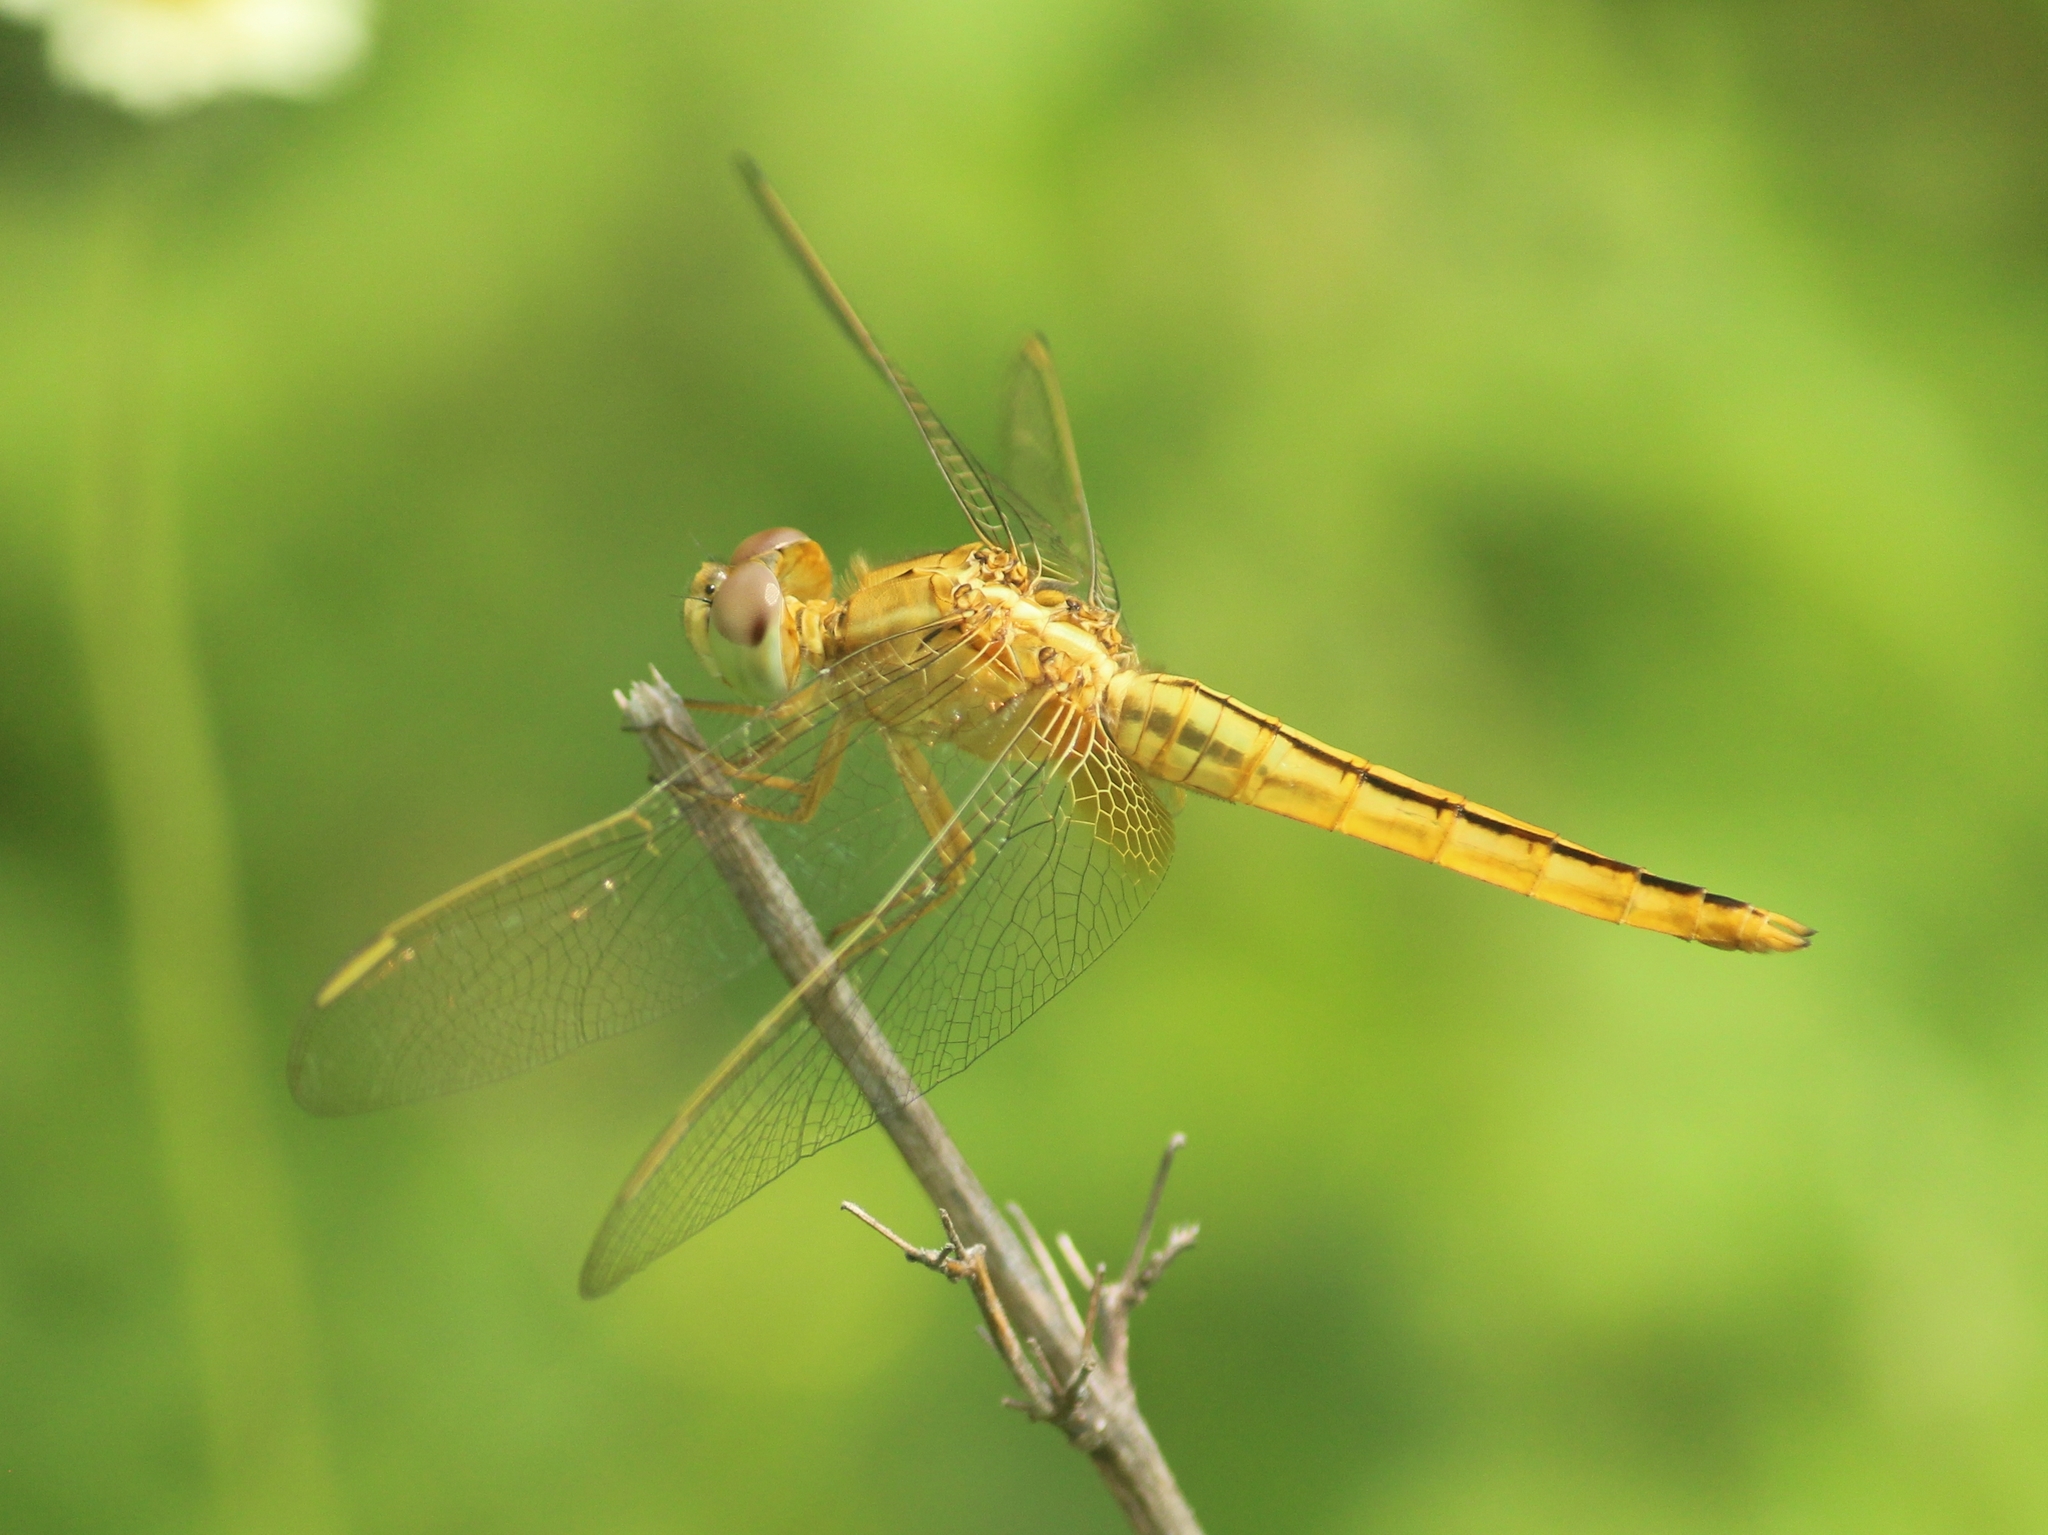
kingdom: Animalia
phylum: Arthropoda
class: Insecta
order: Odonata
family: Libellulidae
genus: Crocothemis
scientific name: Crocothemis servilia
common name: Scarlet skimmer
